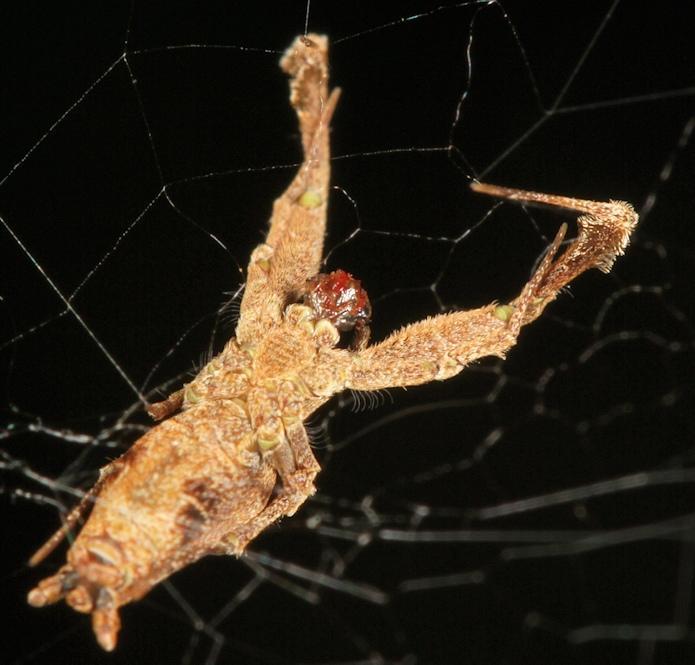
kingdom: Animalia
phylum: Arthropoda
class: Arachnida
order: Araneae
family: Uloboridae
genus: Uloborus
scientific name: Uloborus plumipes
